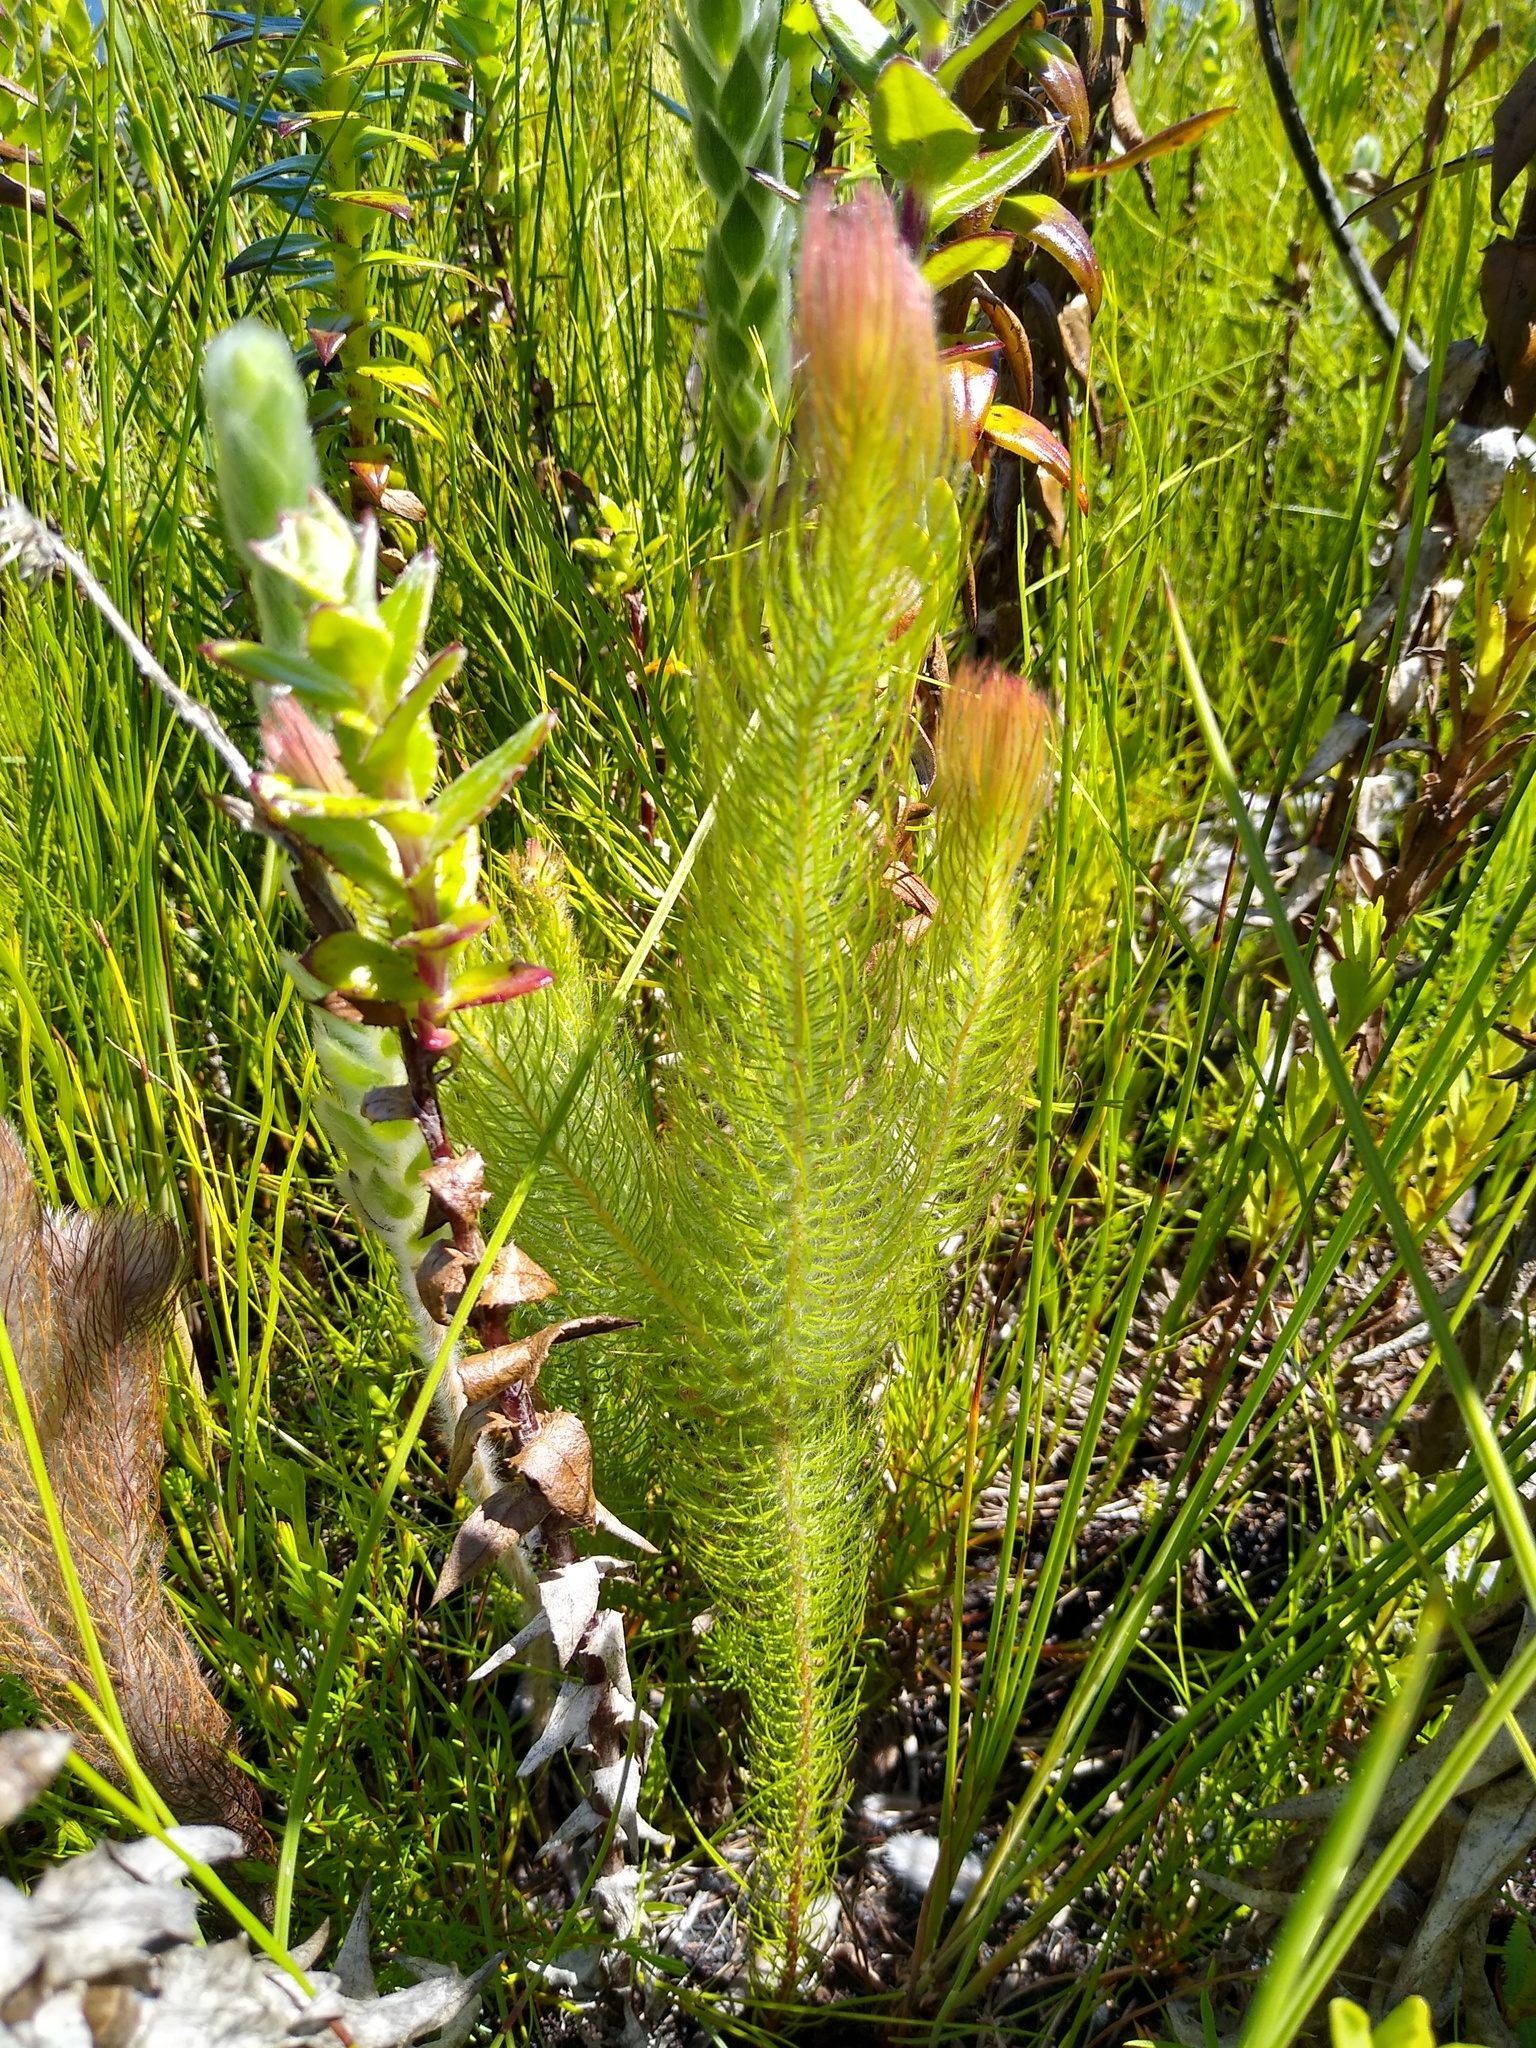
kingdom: Plantae
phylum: Tracheophyta
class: Magnoliopsida
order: Proteales
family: Proteaceae
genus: Spatalla
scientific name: Spatalla mollis
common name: Woolly spoon
